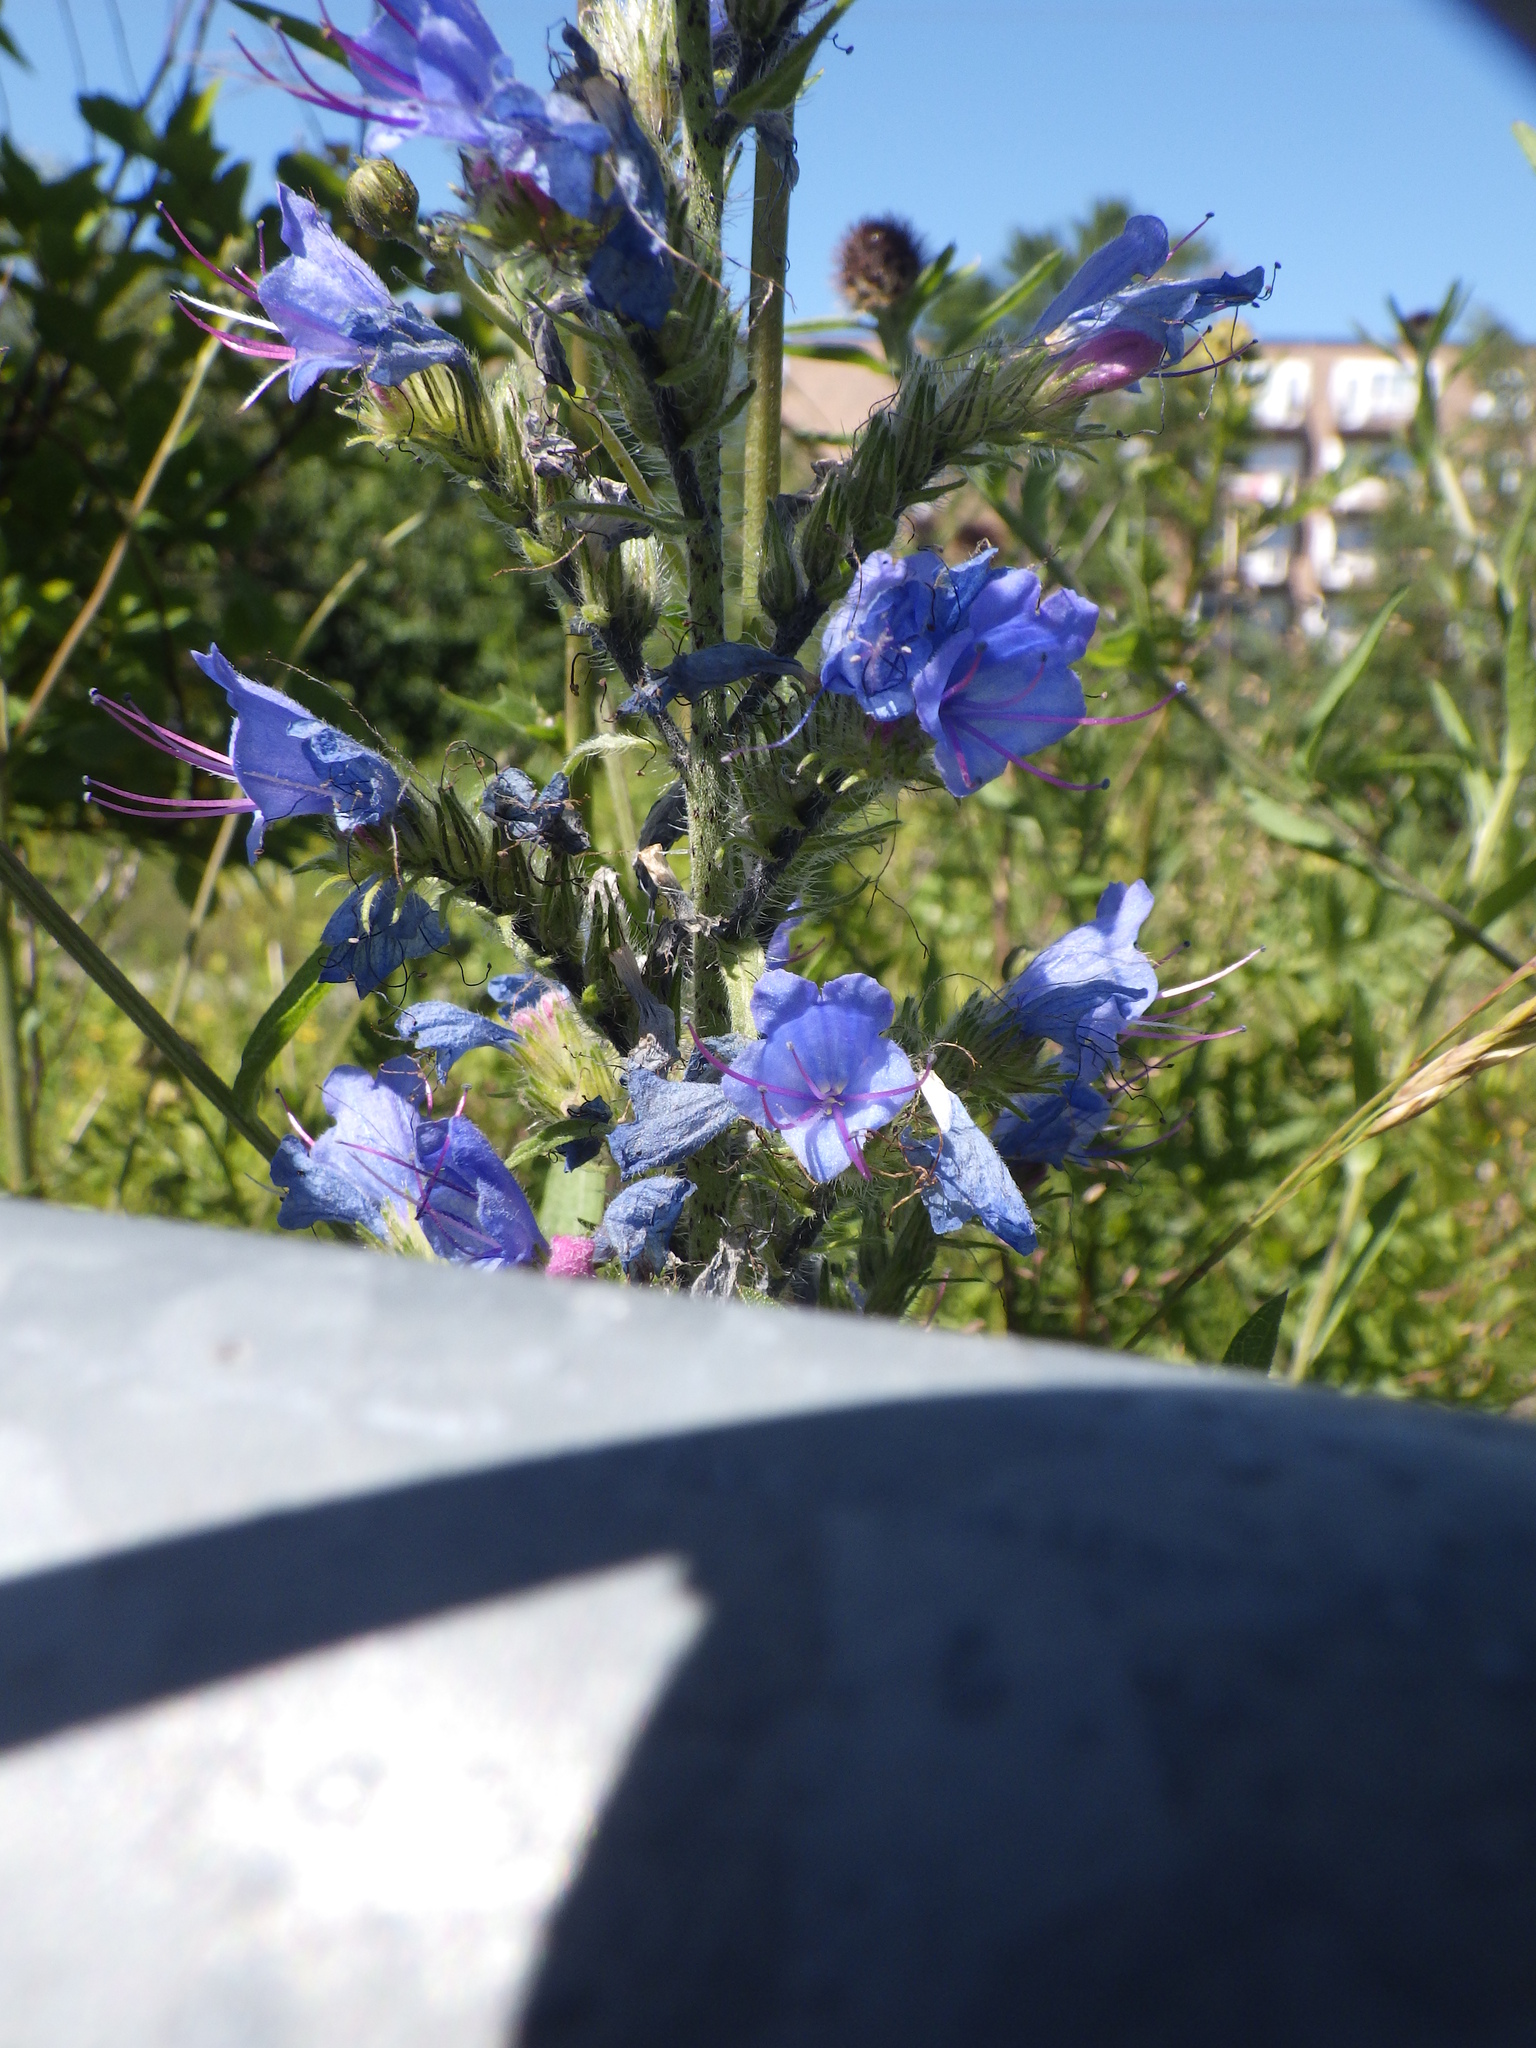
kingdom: Plantae
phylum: Tracheophyta
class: Magnoliopsida
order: Boraginales
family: Boraginaceae
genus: Echium
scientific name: Echium vulgare
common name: Common viper's bugloss
